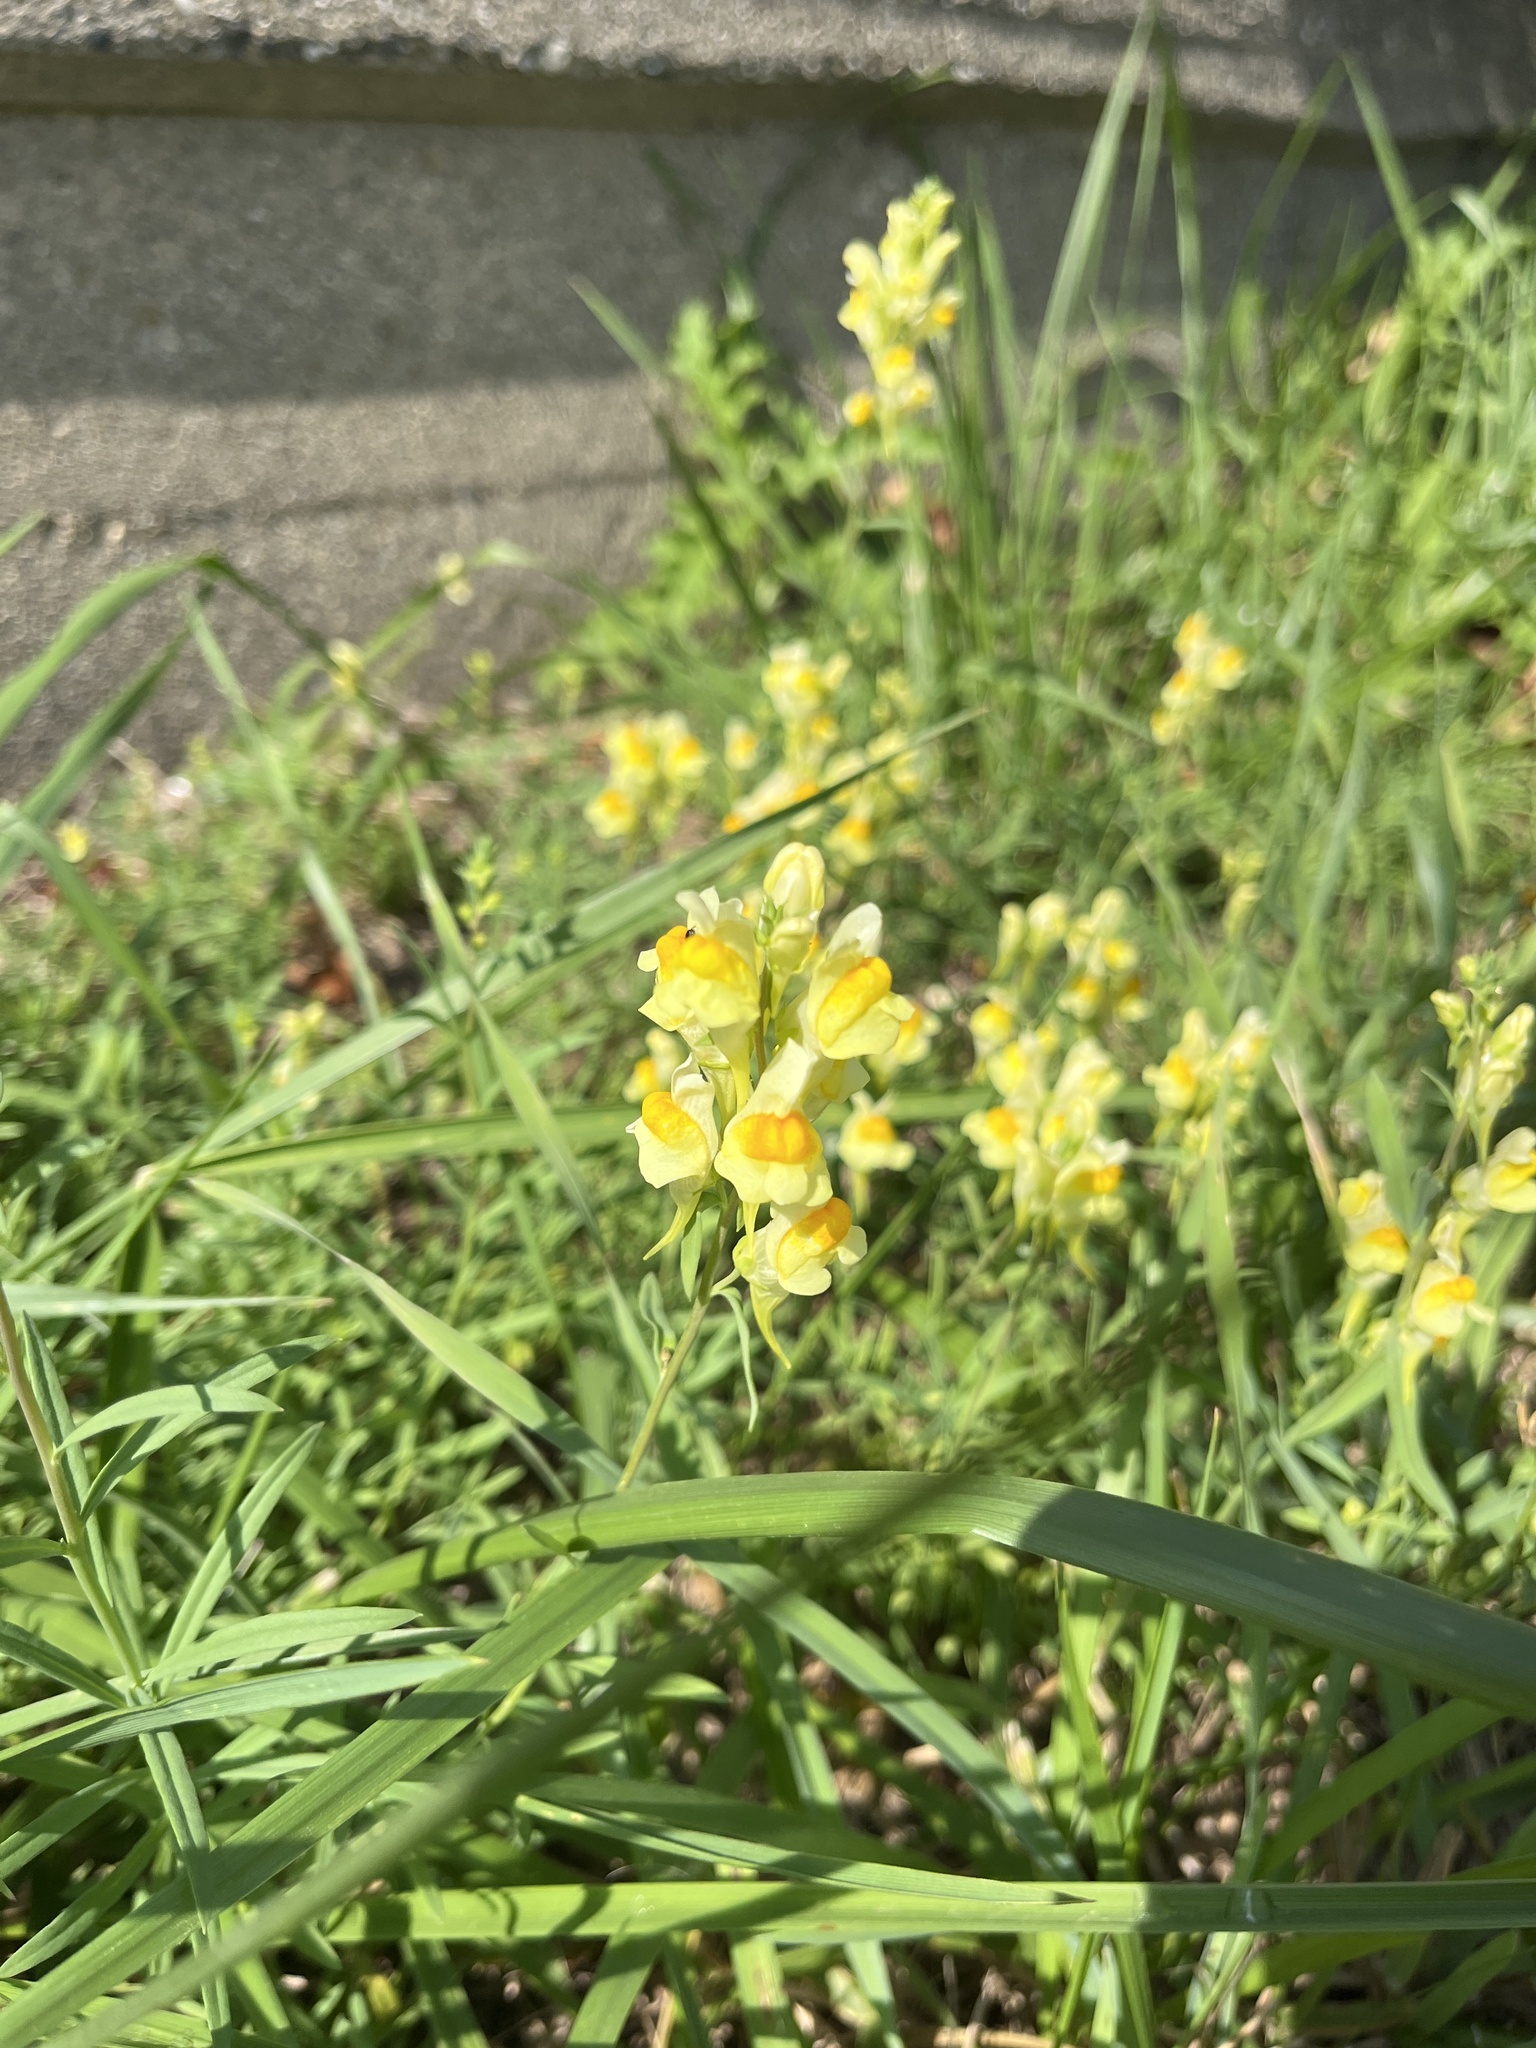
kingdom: Plantae
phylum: Tracheophyta
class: Magnoliopsida
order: Lamiales
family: Plantaginaceae
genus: Linaria
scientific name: Linaria vulgaris
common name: Butter and eggs
